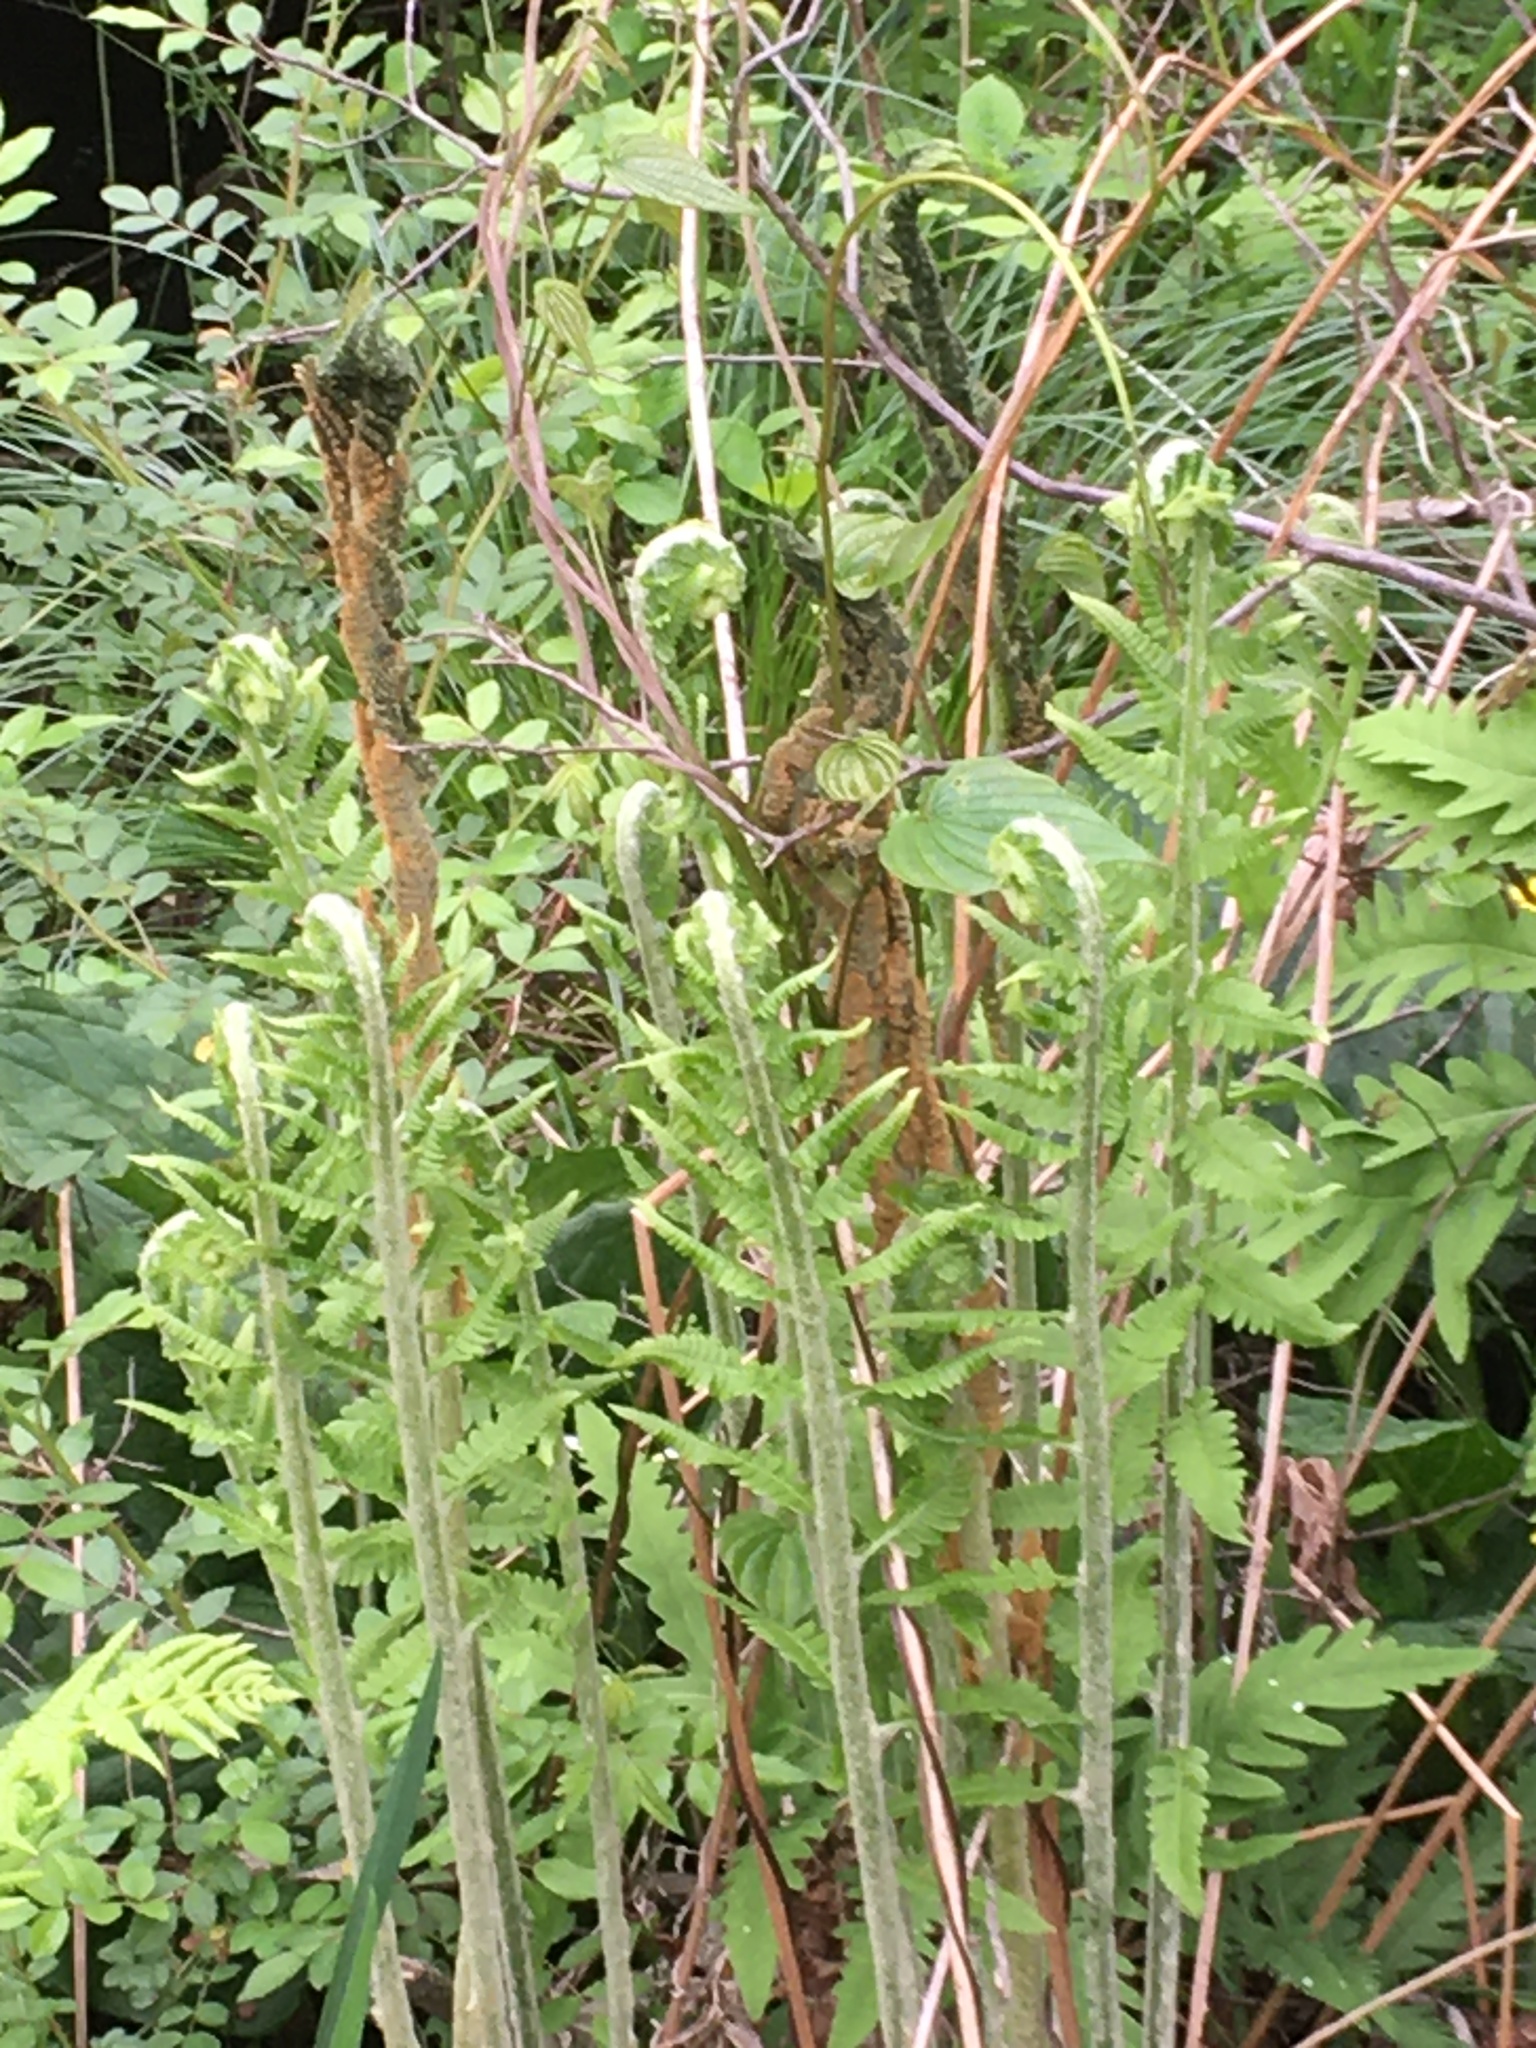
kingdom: Plantae
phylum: Tracheophyta
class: Polypodiopsida
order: Osmundales
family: Osmundaceae
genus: Osmundastrum
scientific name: Osmundastrum cinnamomeum
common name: Cinnamon fern
